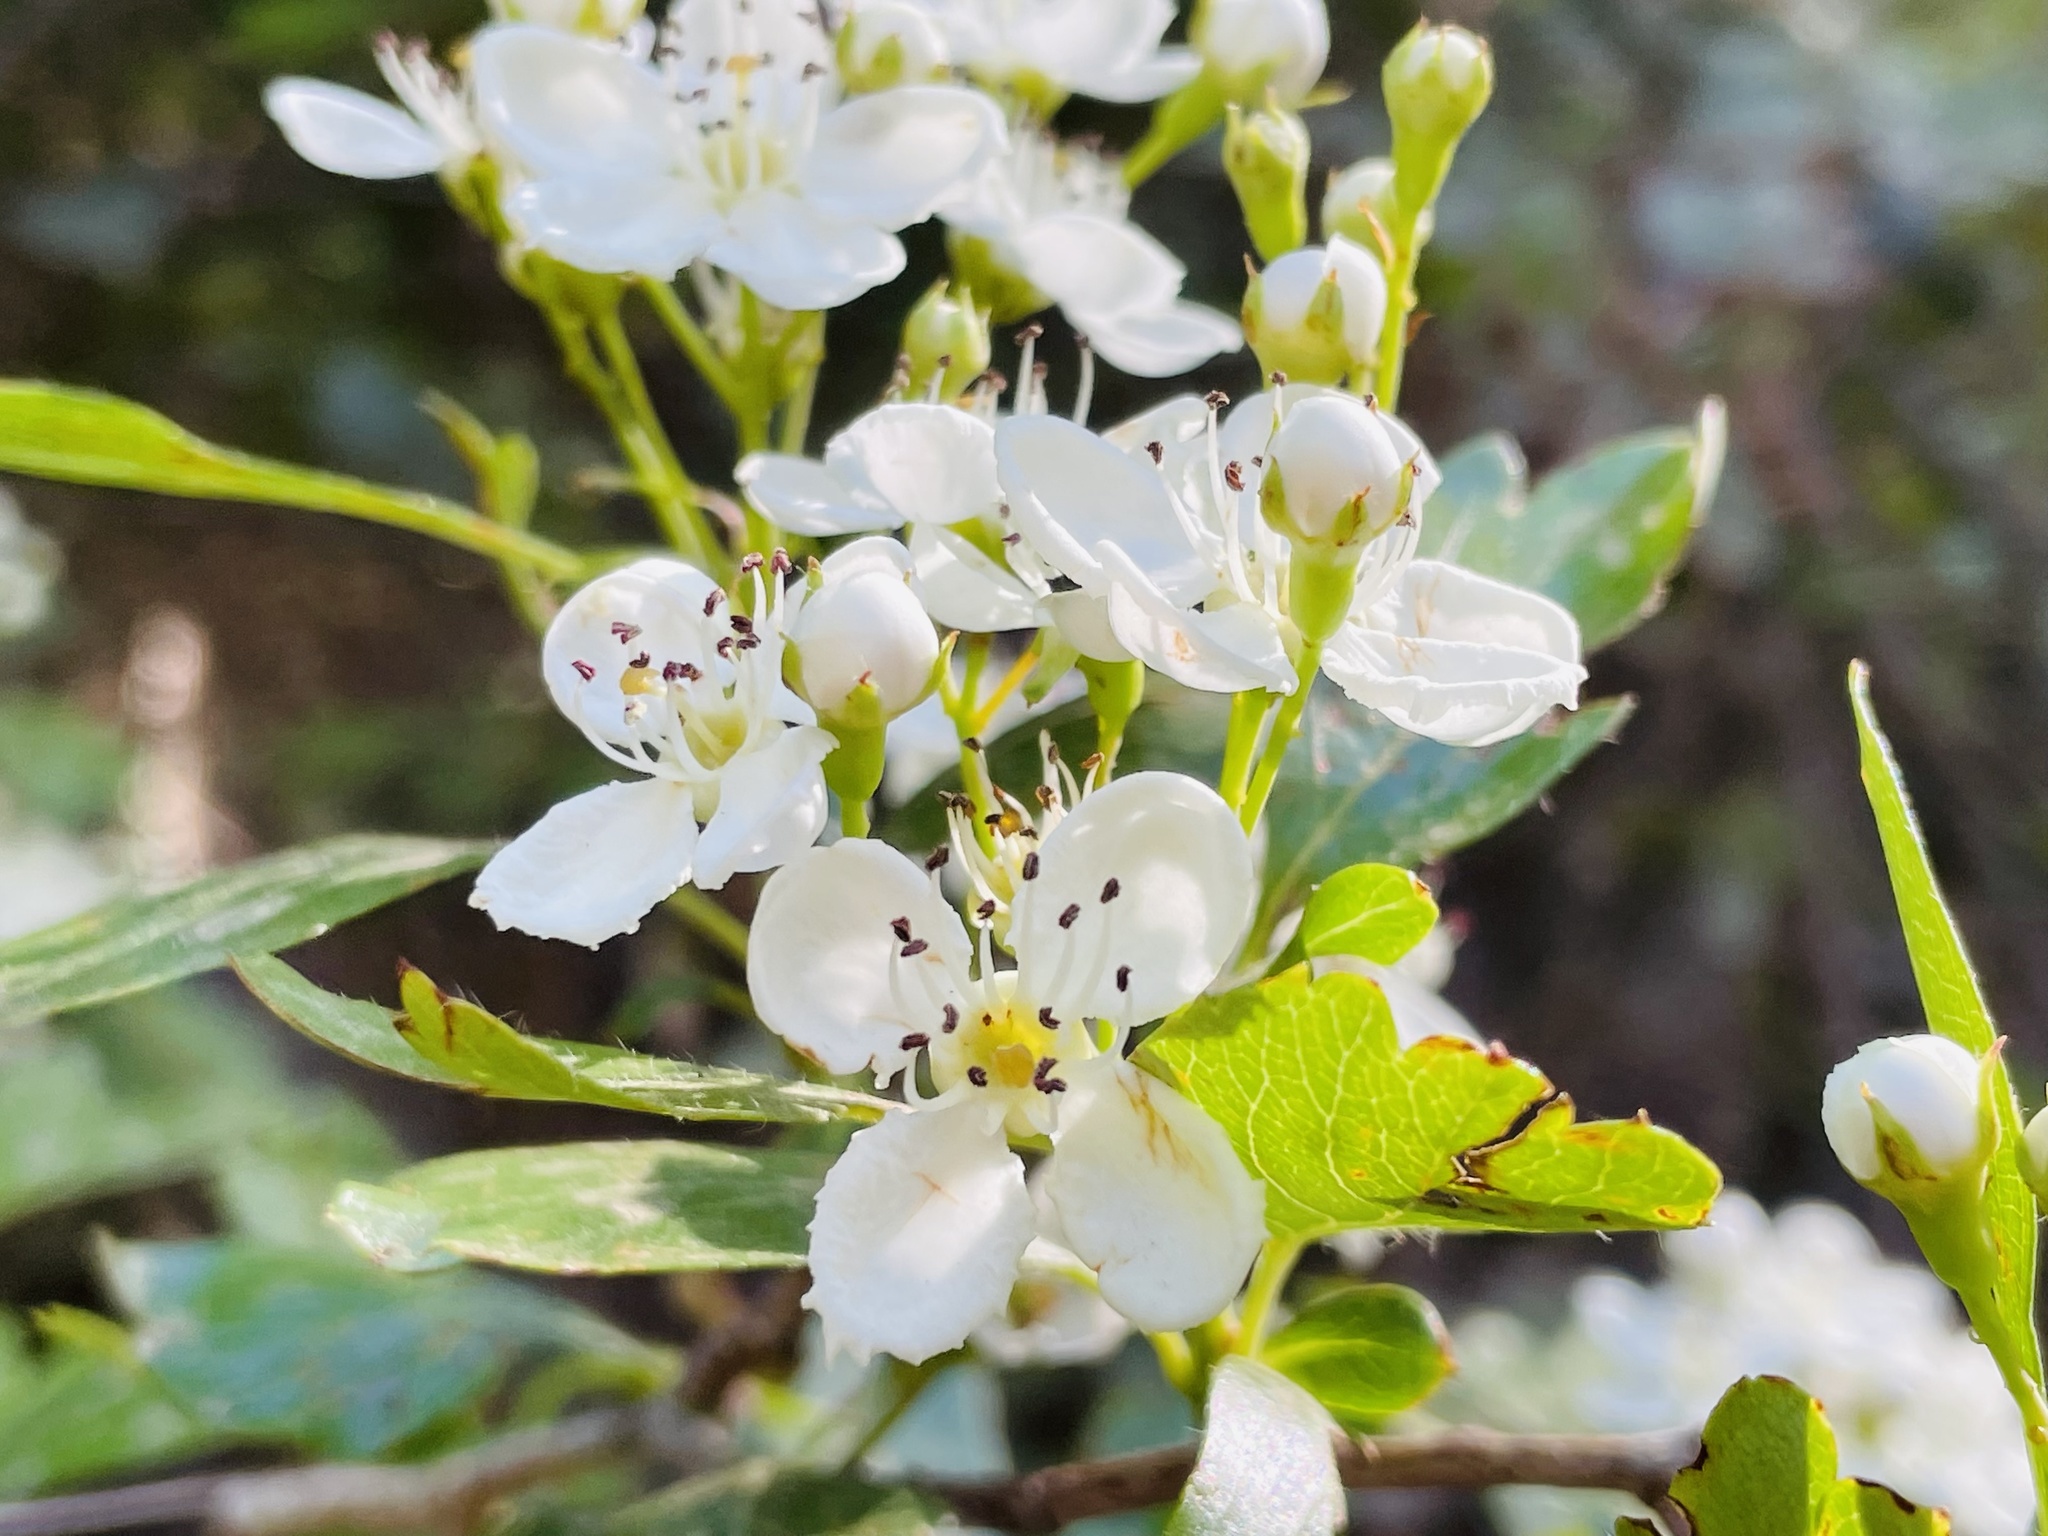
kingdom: Plantae
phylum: Tracheophyta
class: Magnoliopsida
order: Rosales
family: Rosaceae
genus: Crataegus
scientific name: Crataegus monogyna
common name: Hawthorn
